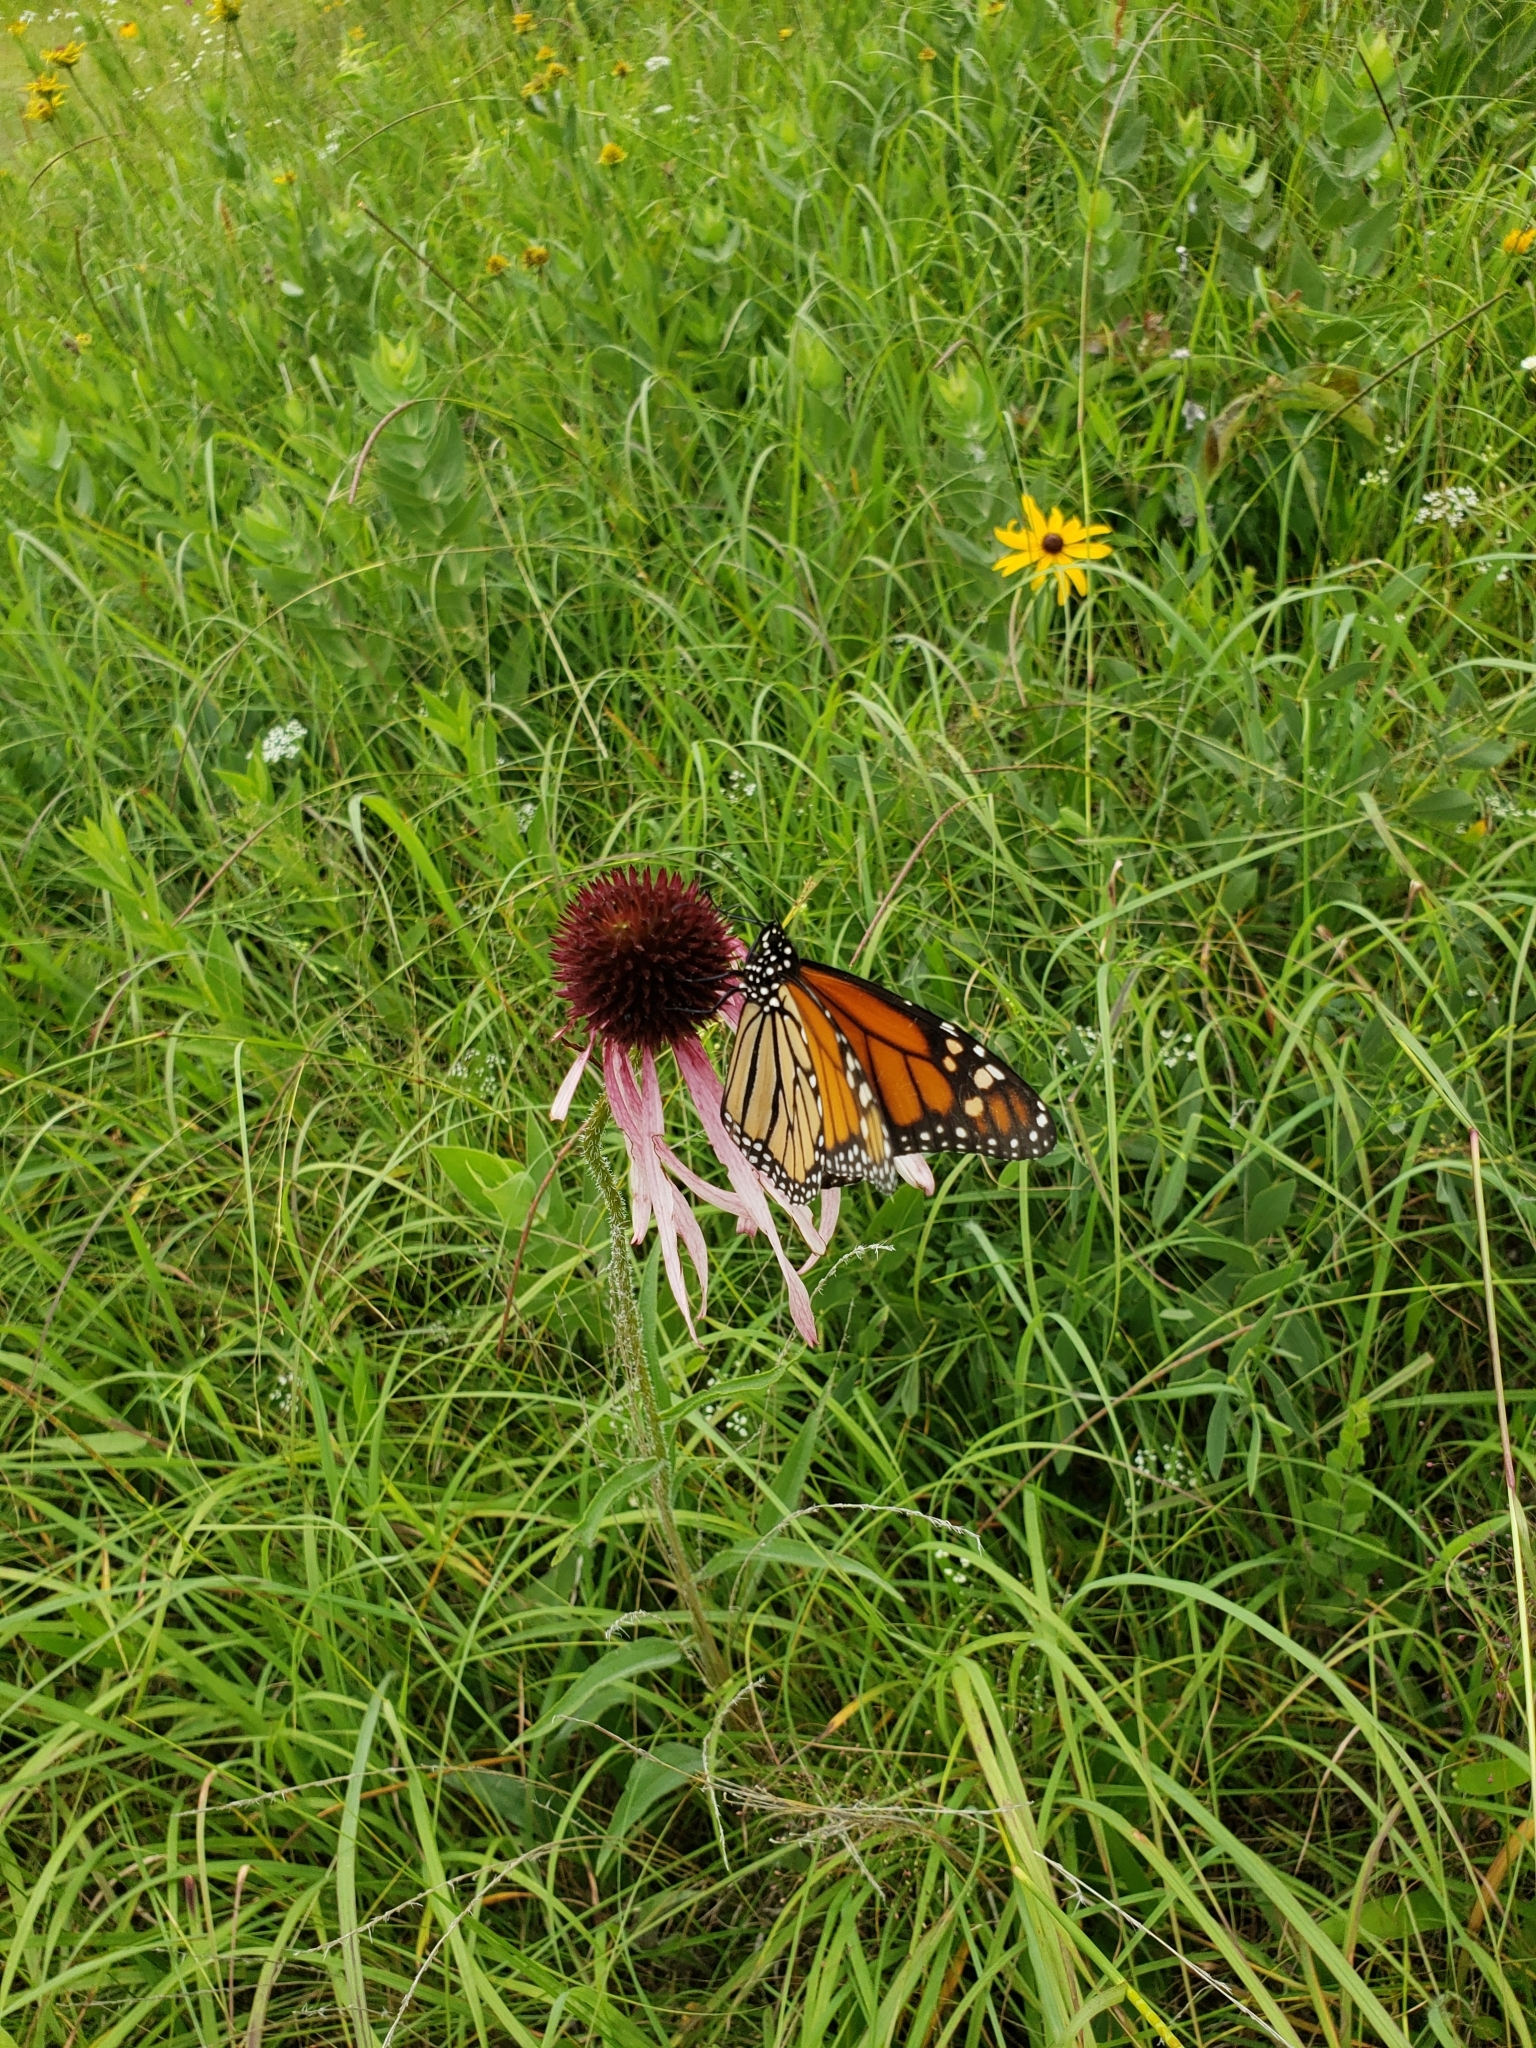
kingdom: Animalia
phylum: Arthropoda
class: Insecta
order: Lepidoptera
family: Nymphalidae
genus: Danaus
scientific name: Danaus plexippus
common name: Monarch
